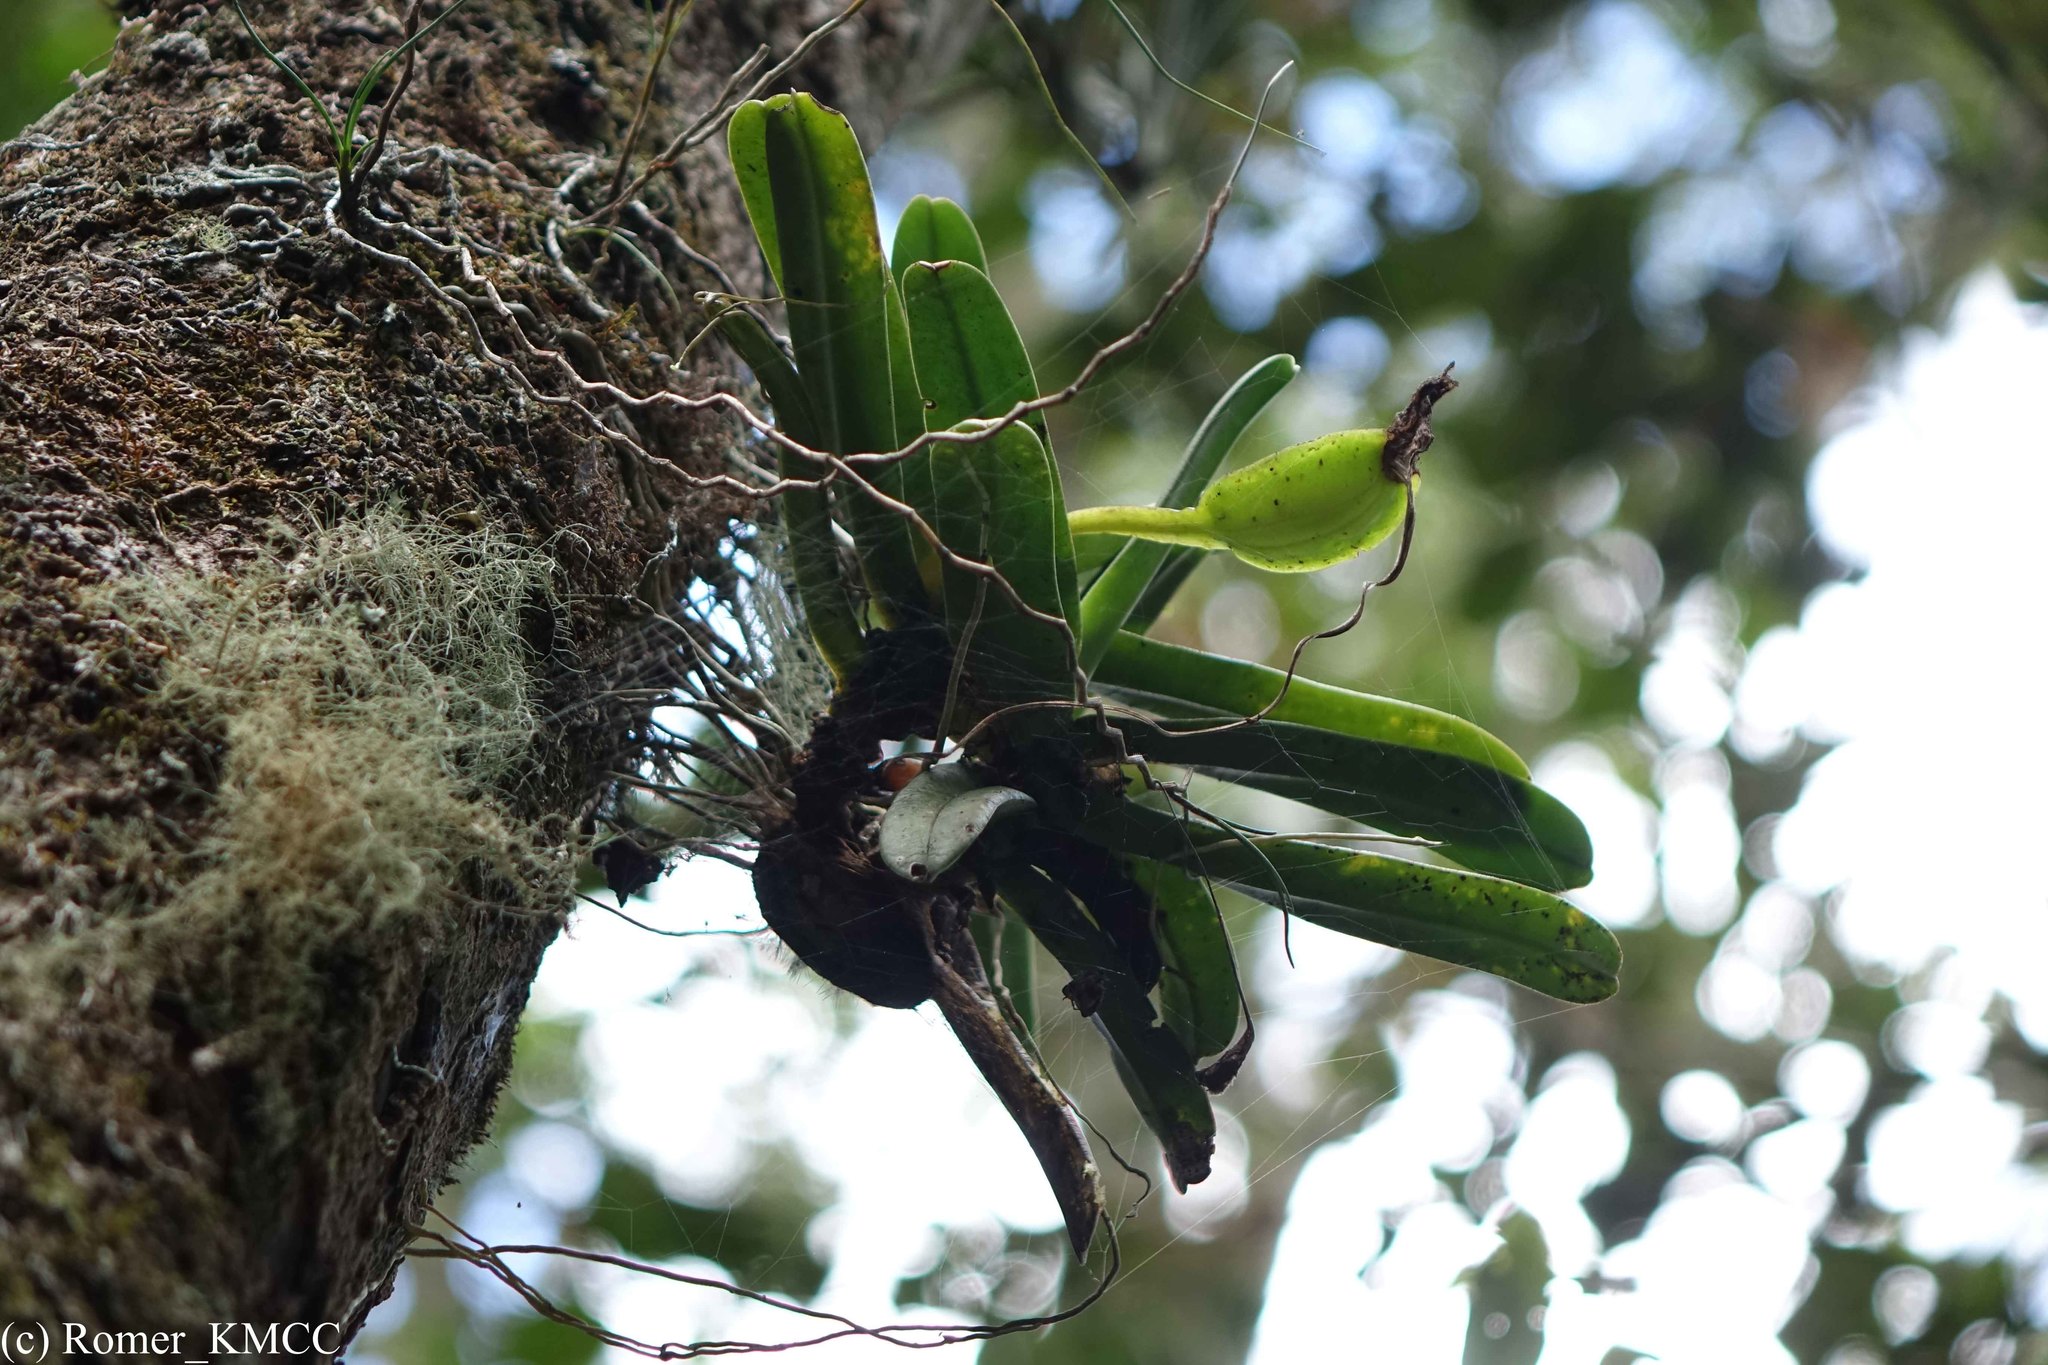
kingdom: Plantae
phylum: Tracheophyta
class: Liliopsida
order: Asparagales
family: Orchidaceae
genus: Angraecum
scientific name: Angraecum compactum
